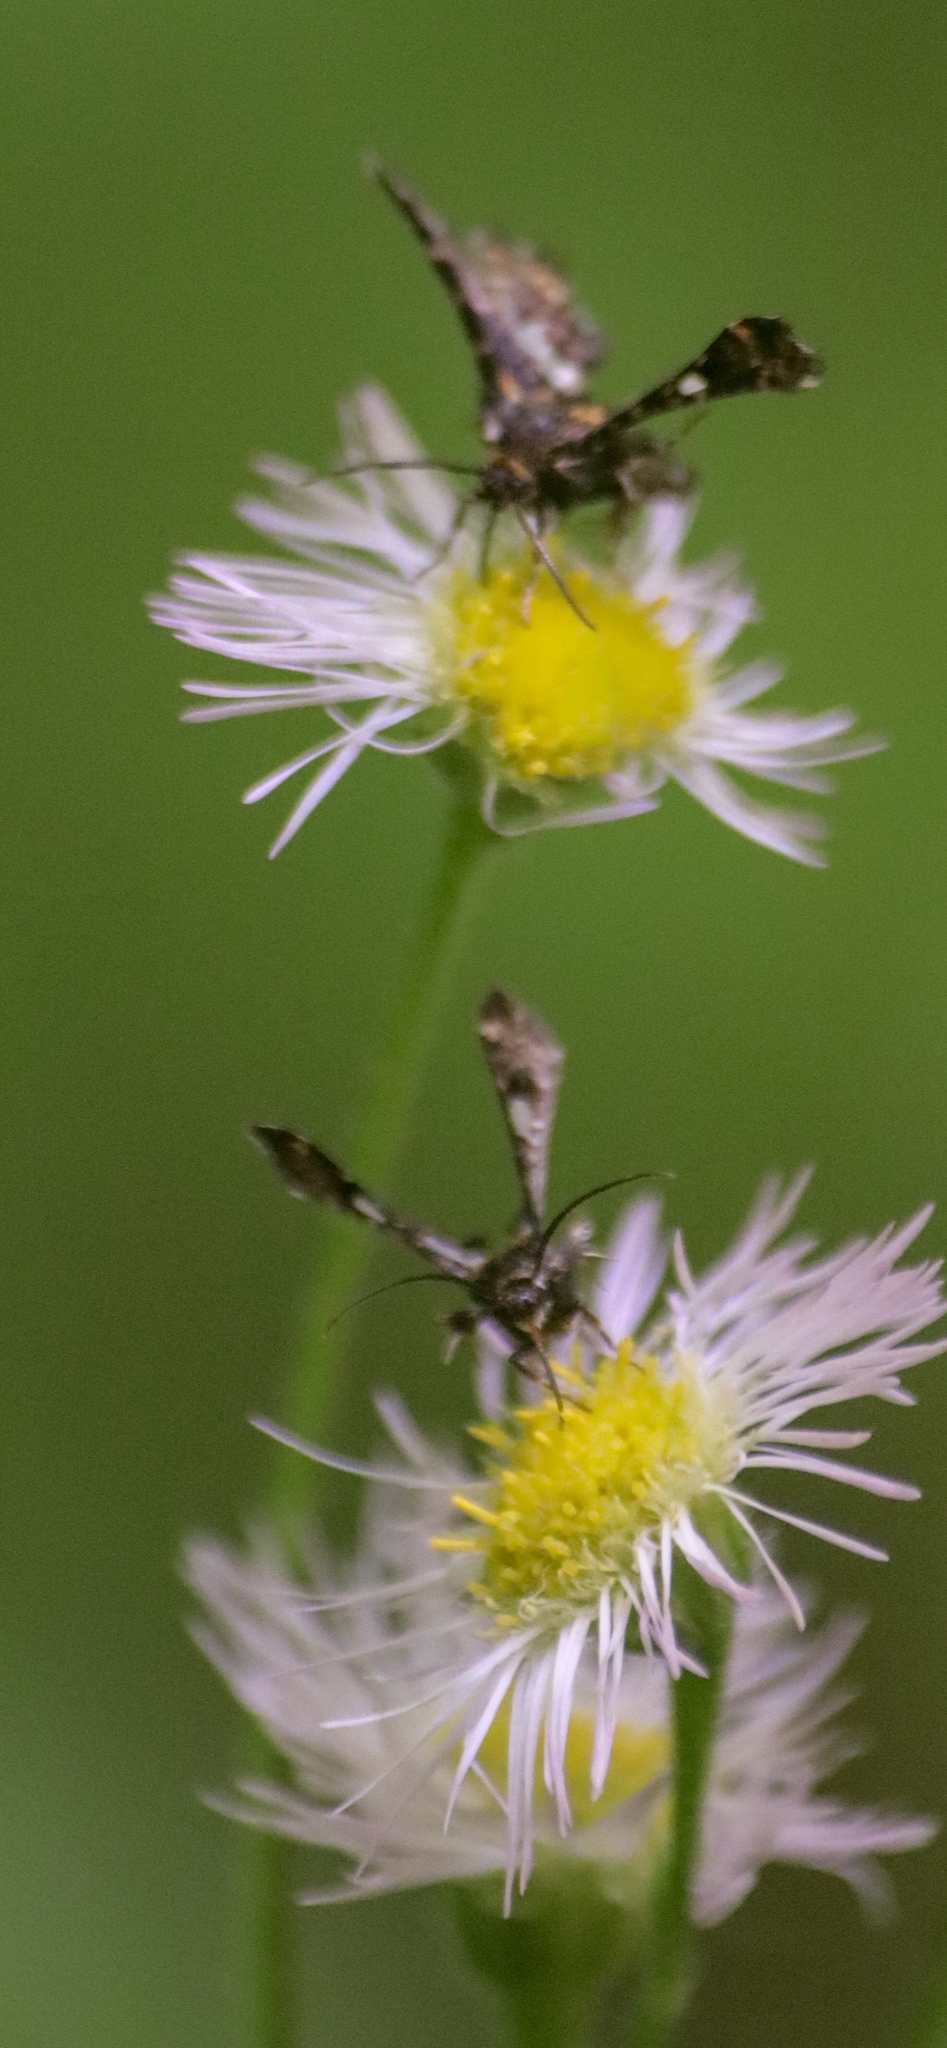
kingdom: Animalia
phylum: Arthropoda
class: Insecta
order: Lepidoptera
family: Thyrididae
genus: Thyris
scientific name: Thyris maculata
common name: Spotted thyris moth
